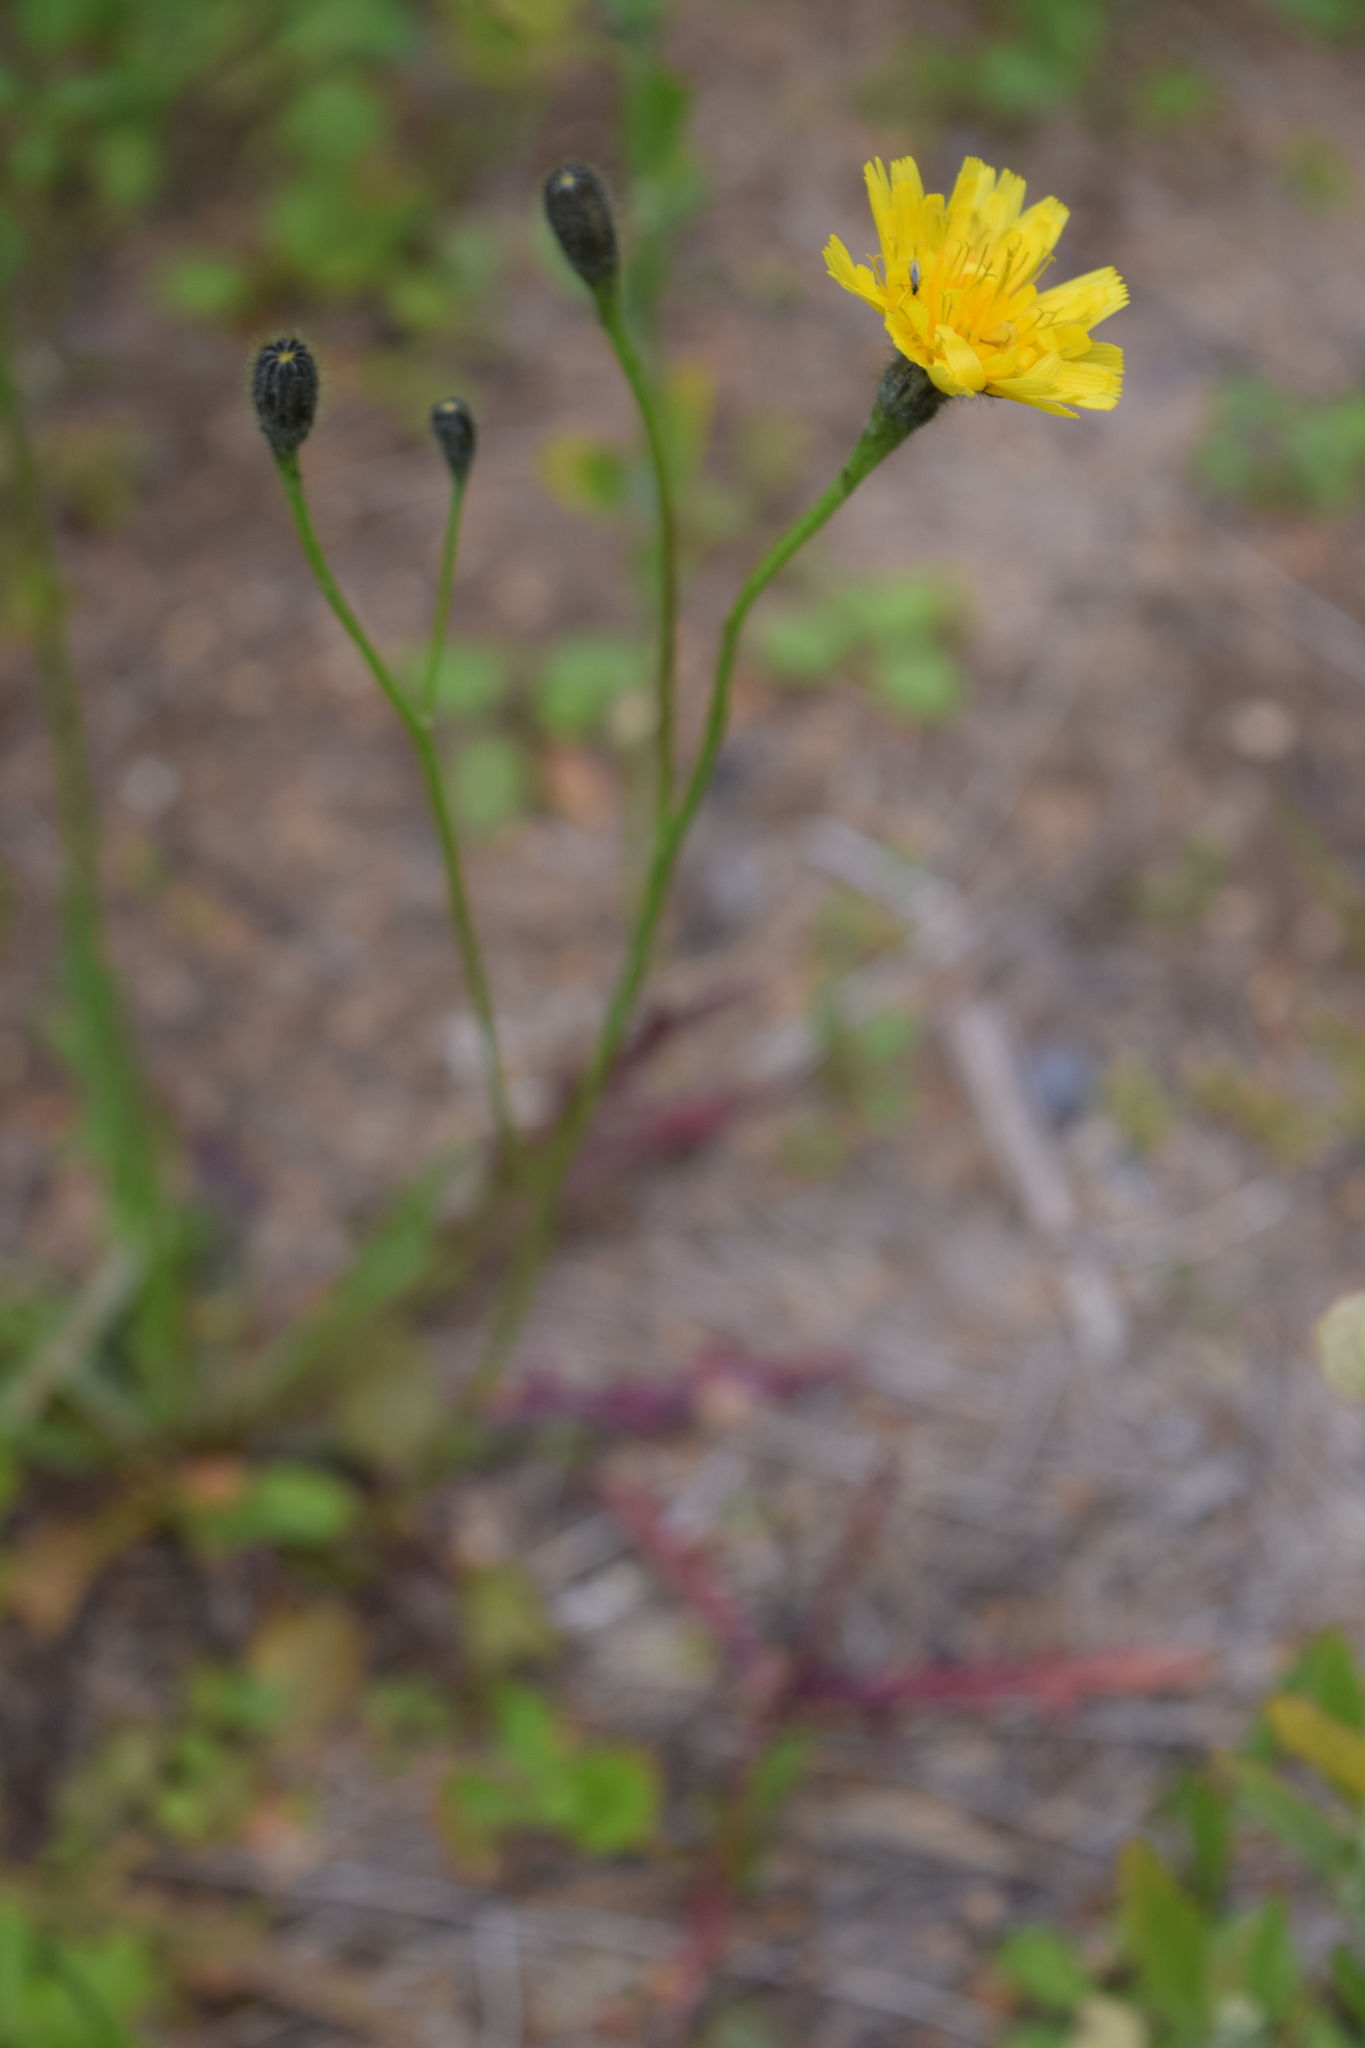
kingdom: Plantae
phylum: Tracheophyta
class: Magnoliopsida
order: Asterales
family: Asteraceae
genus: Scorzoneroides
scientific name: Scorzoneroides autumnalis
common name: Autumn hawkbit
